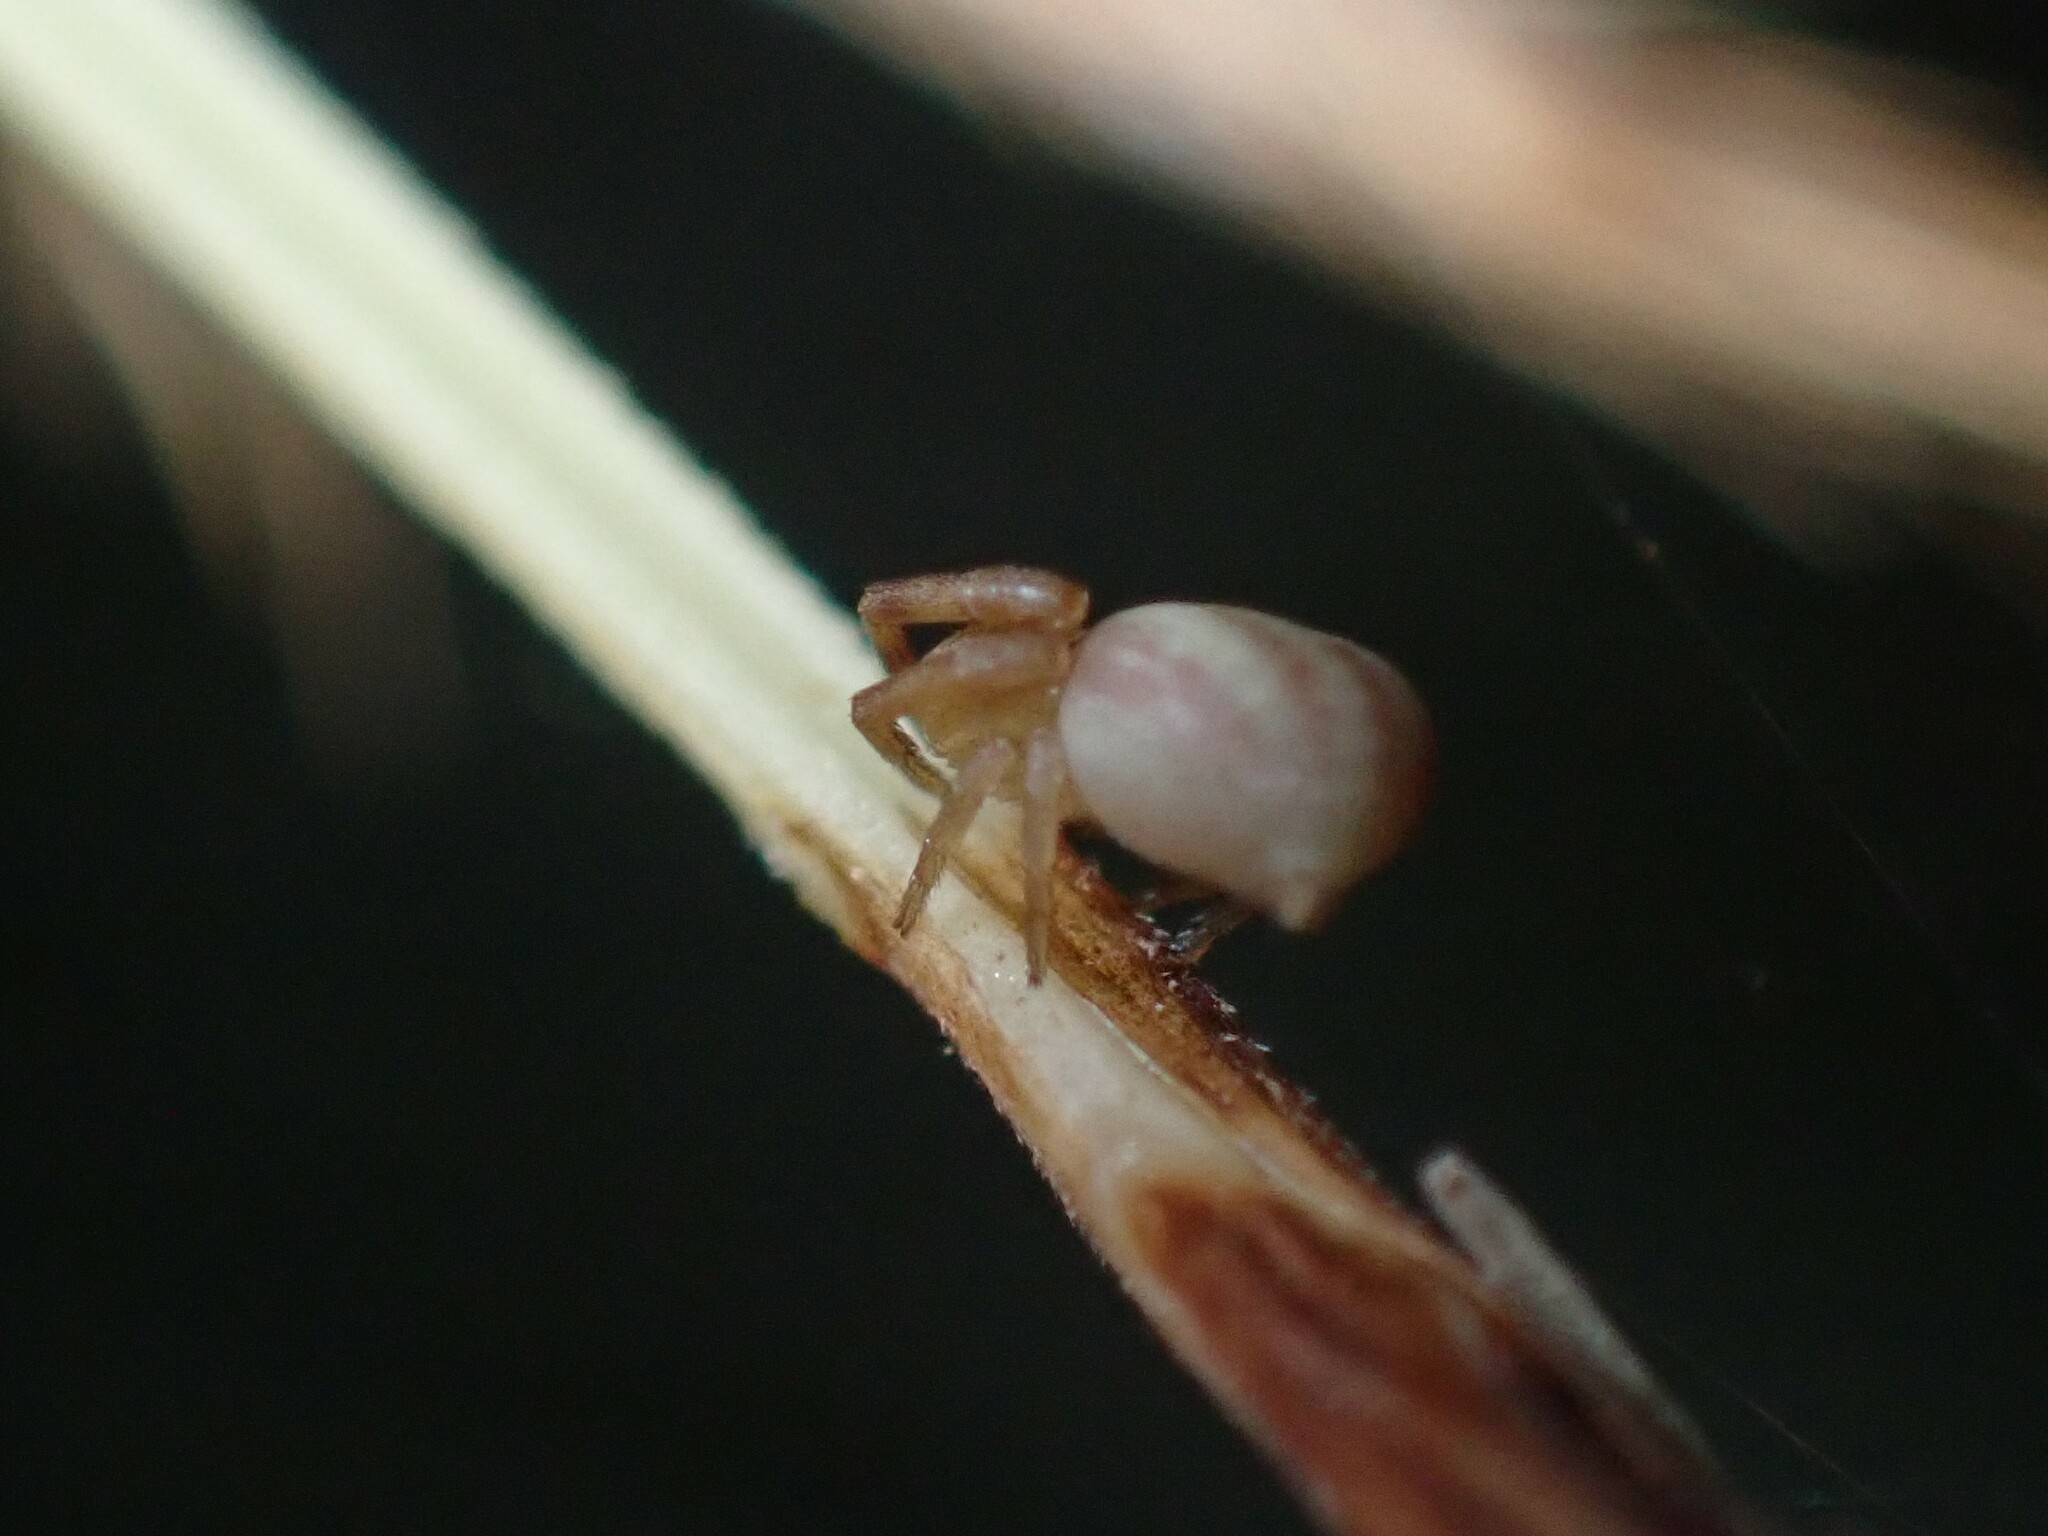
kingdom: Animalia
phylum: Arthropoda
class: Arachnida
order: Araneae
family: Thomisidae
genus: Runcinia
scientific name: Runcinia grammica
